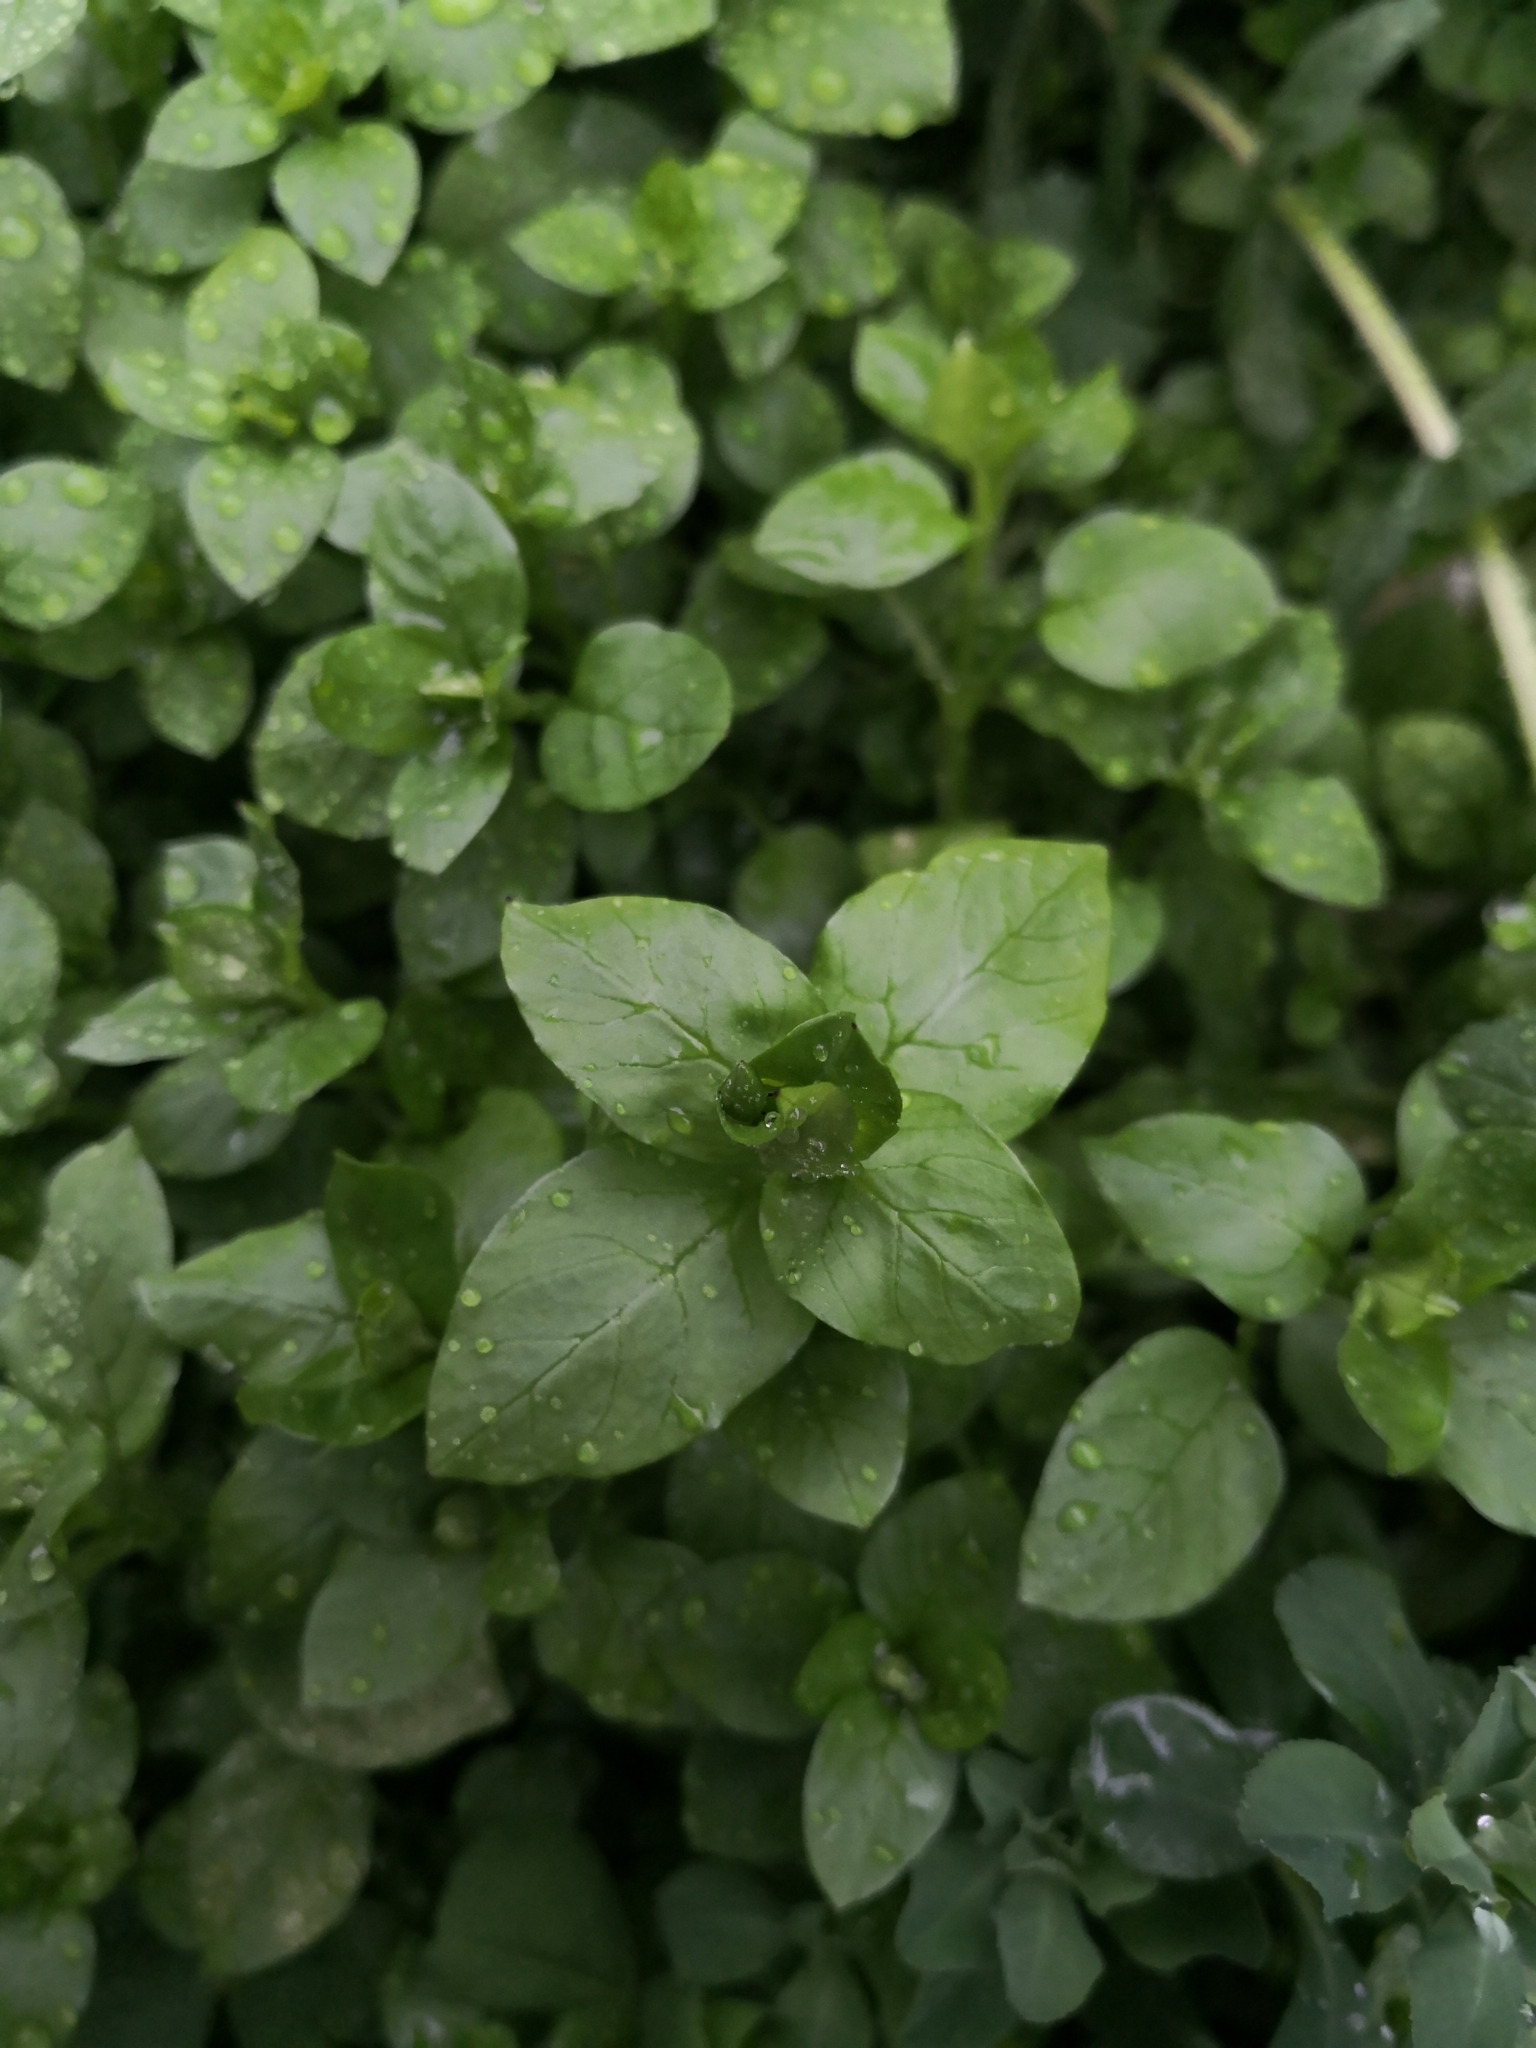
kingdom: Plantae
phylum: Tracheophyta
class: Magnoliopsida
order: Caryophyllales
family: Caryophyllaceae
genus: Stellaria
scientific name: Stellaria media
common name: Common chickweed
